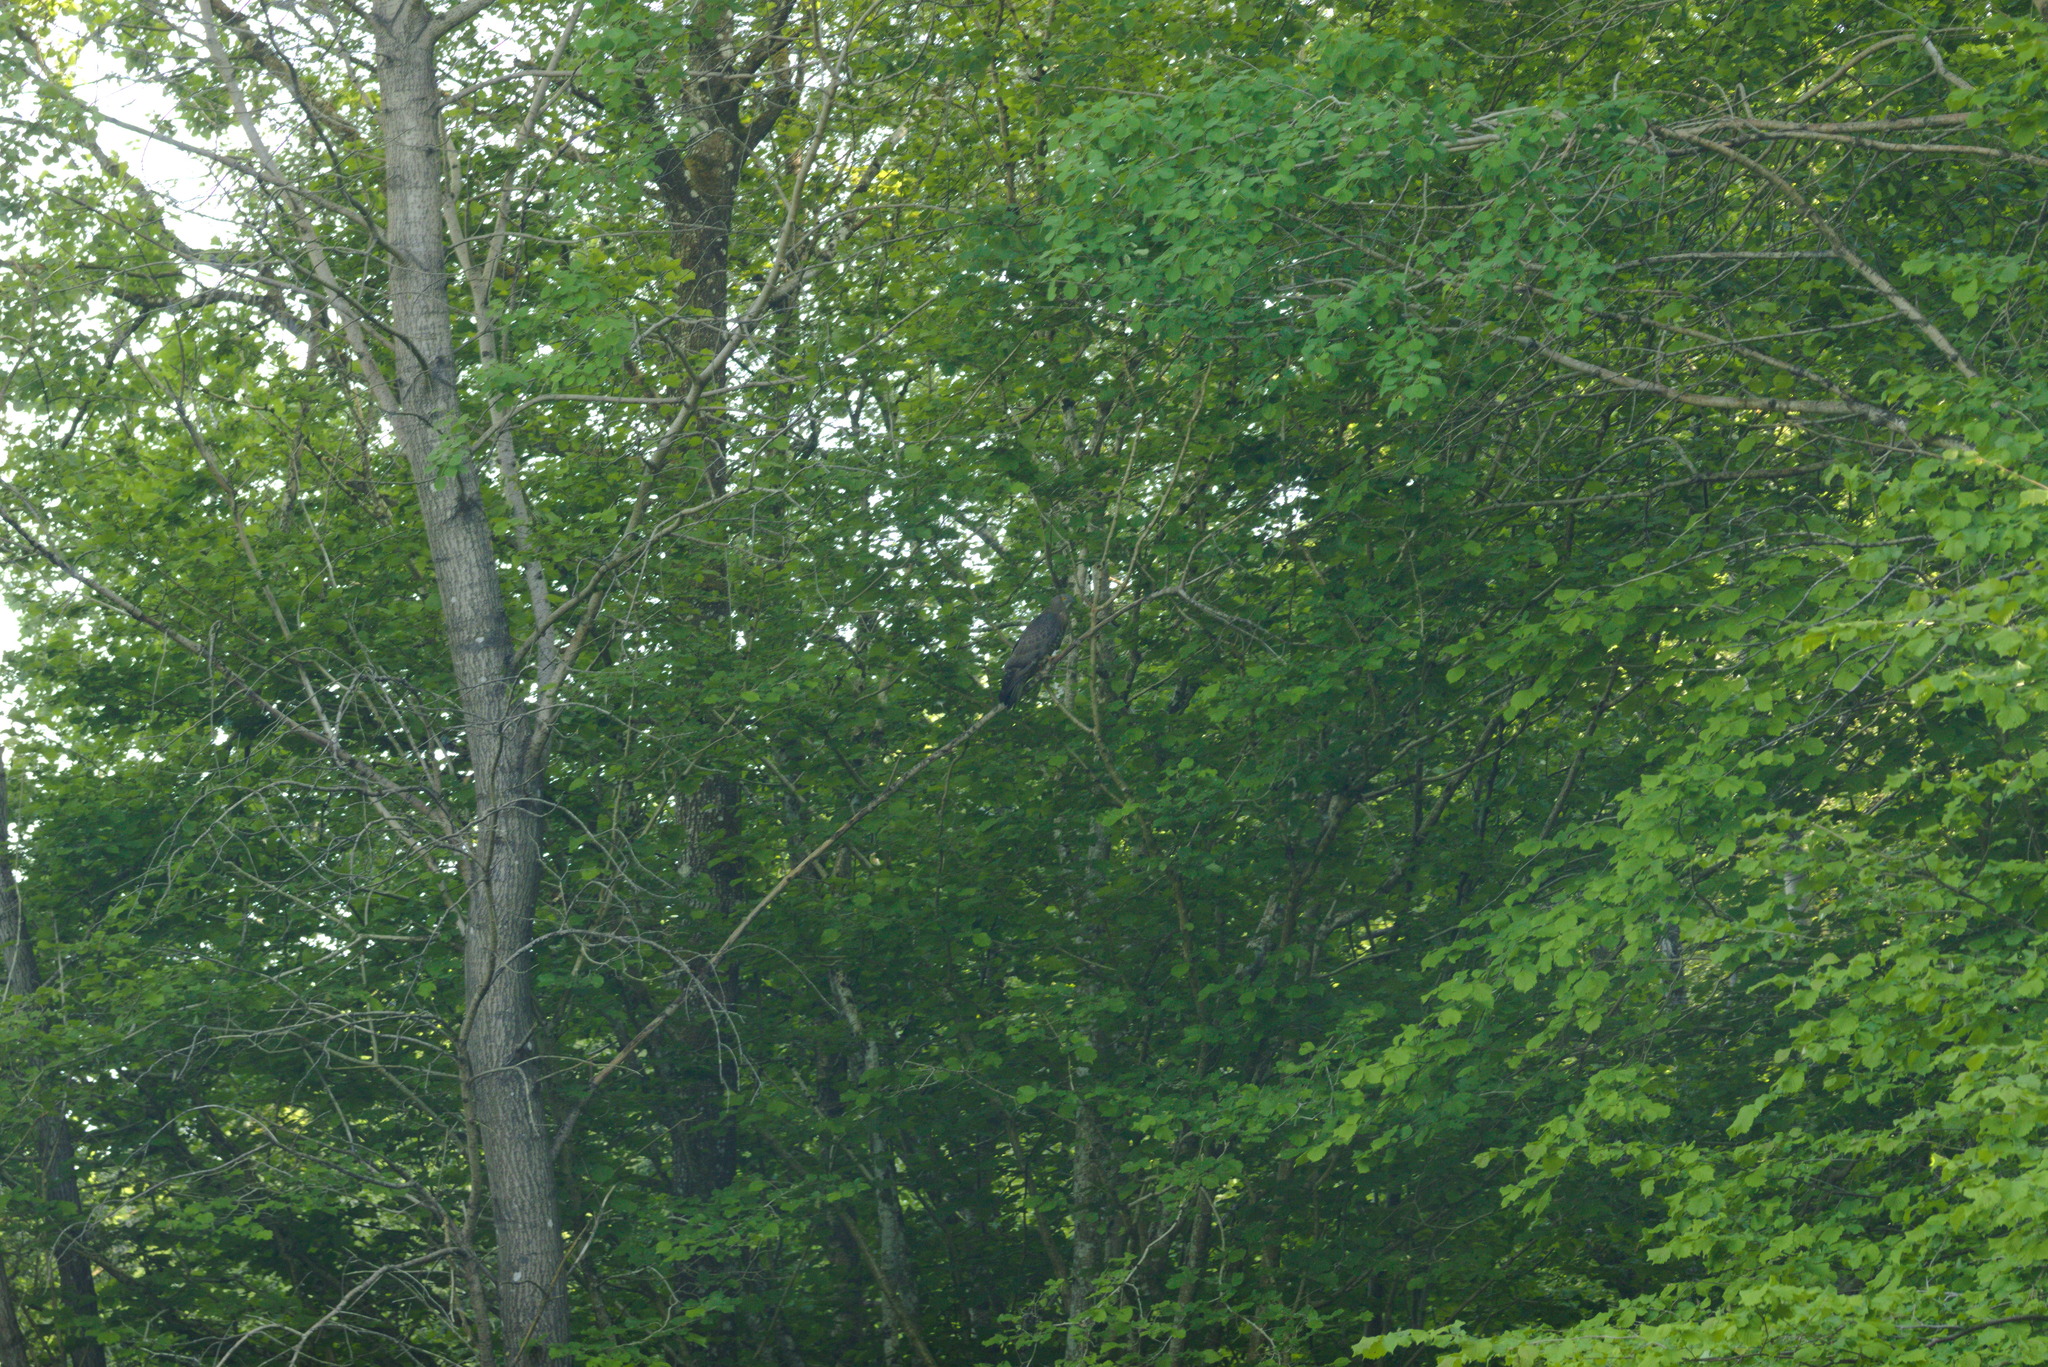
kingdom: Animalia
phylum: Chordata
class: Aves
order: Accipitriformes
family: Accipitridae
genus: Pernis
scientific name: Pernis apivorus
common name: European honey buzzard
